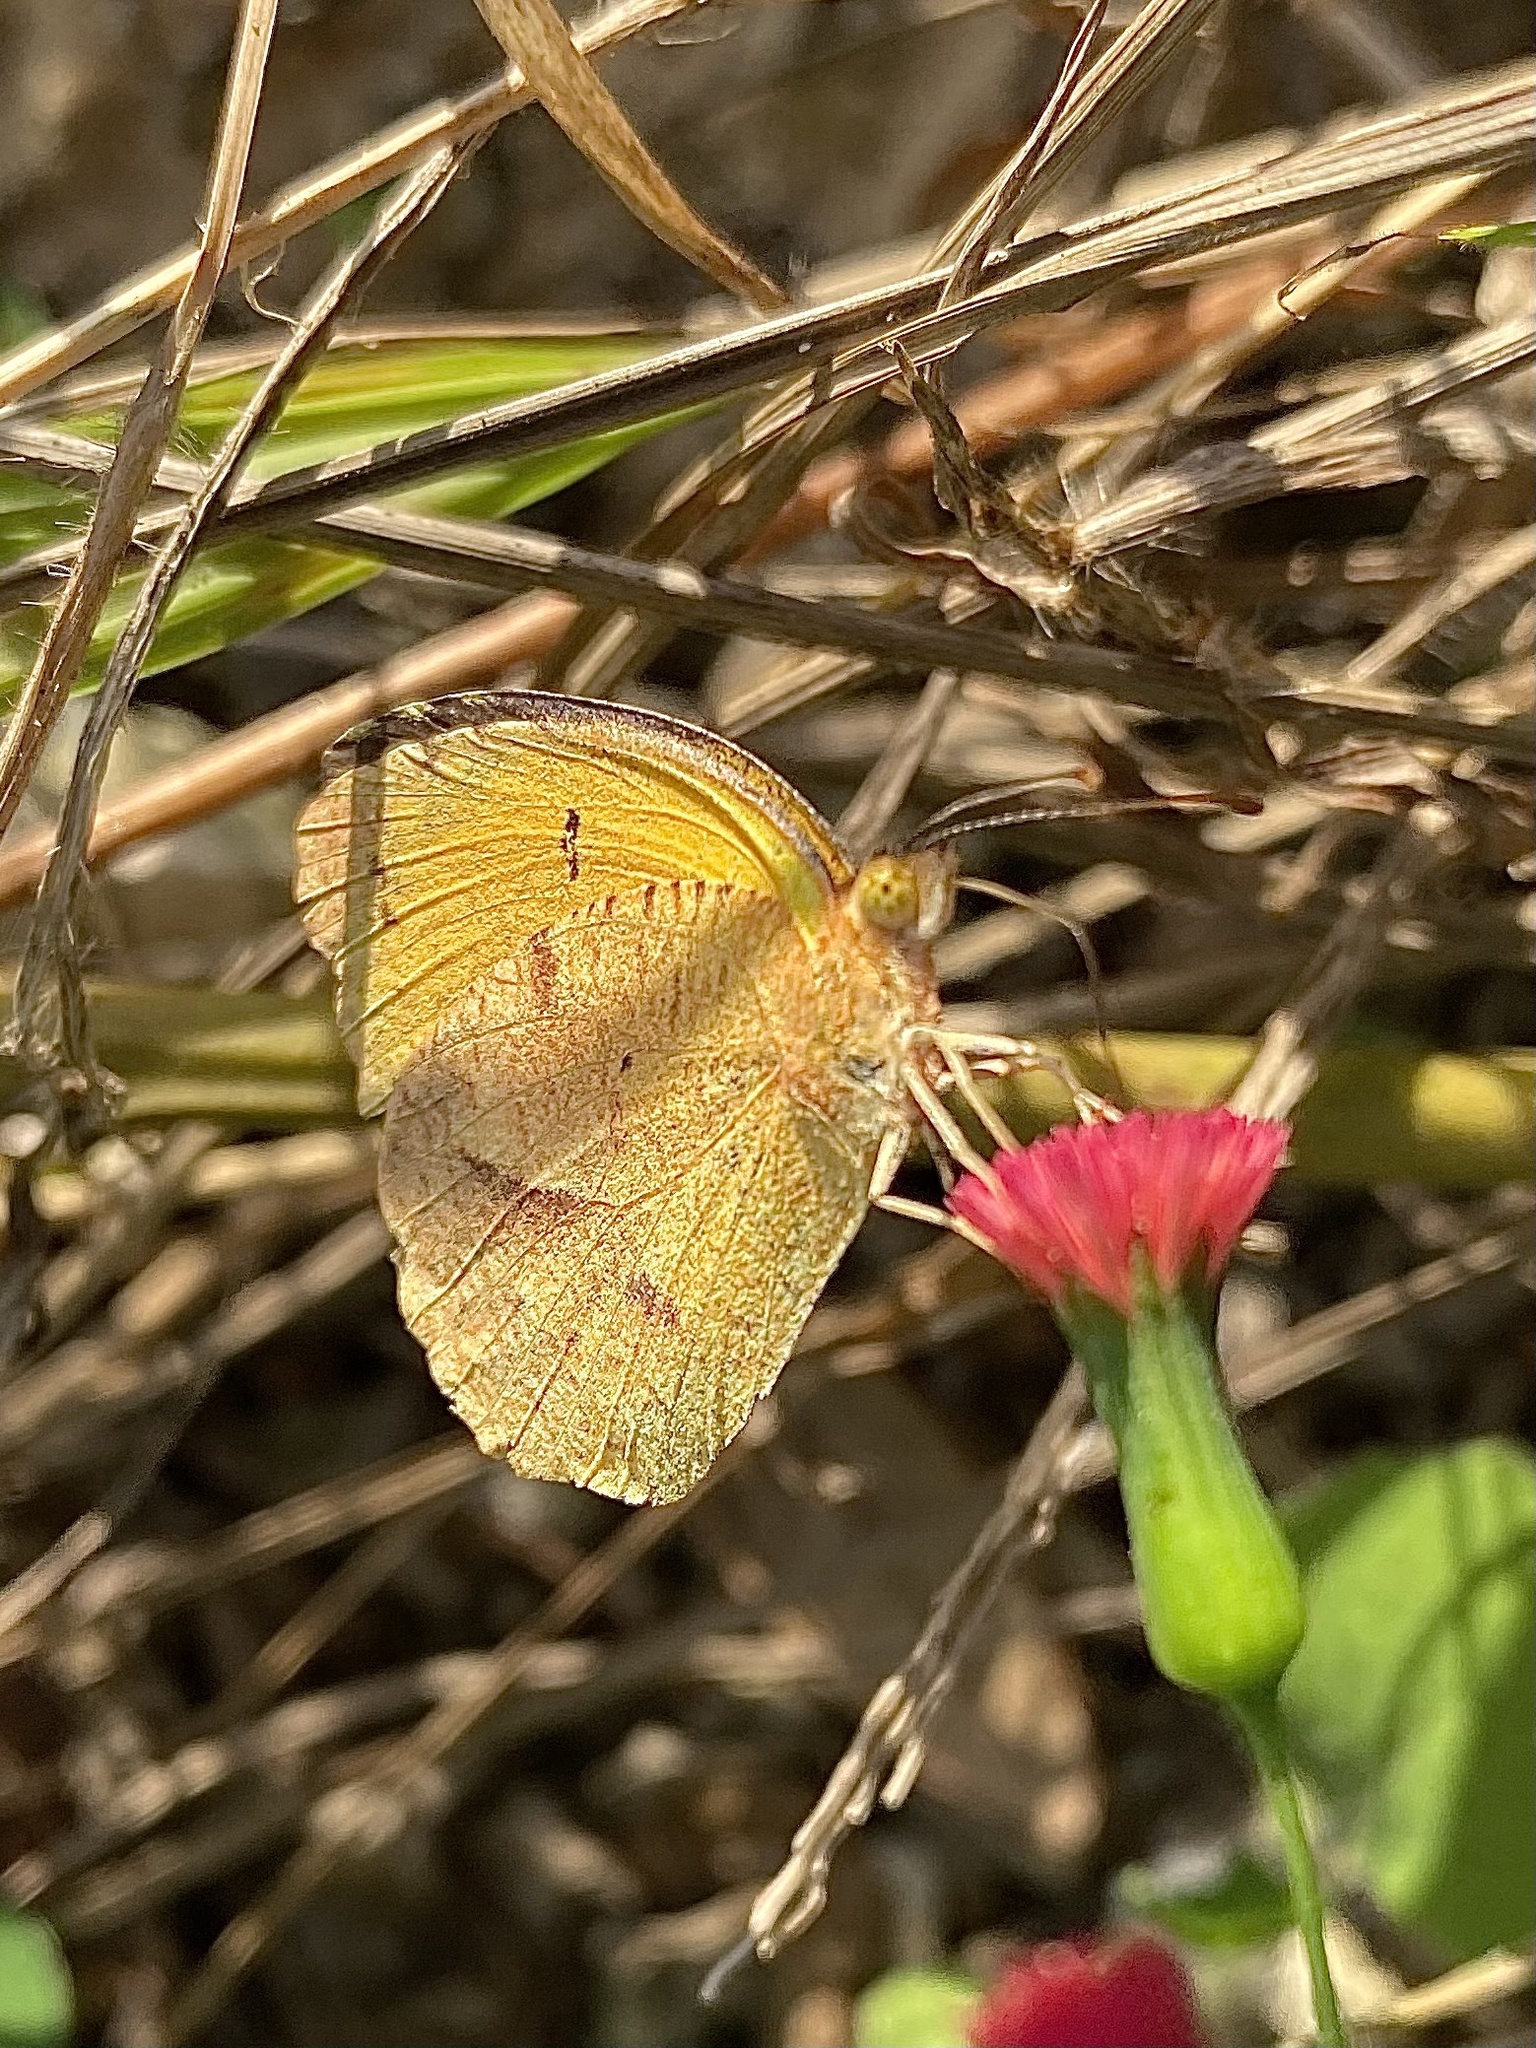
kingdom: Animalia
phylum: Arthropoda
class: Insecta
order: Lepidoptera
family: Pieridae
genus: Abaeis
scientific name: Abaeis nicippe
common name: Sleepy orange
